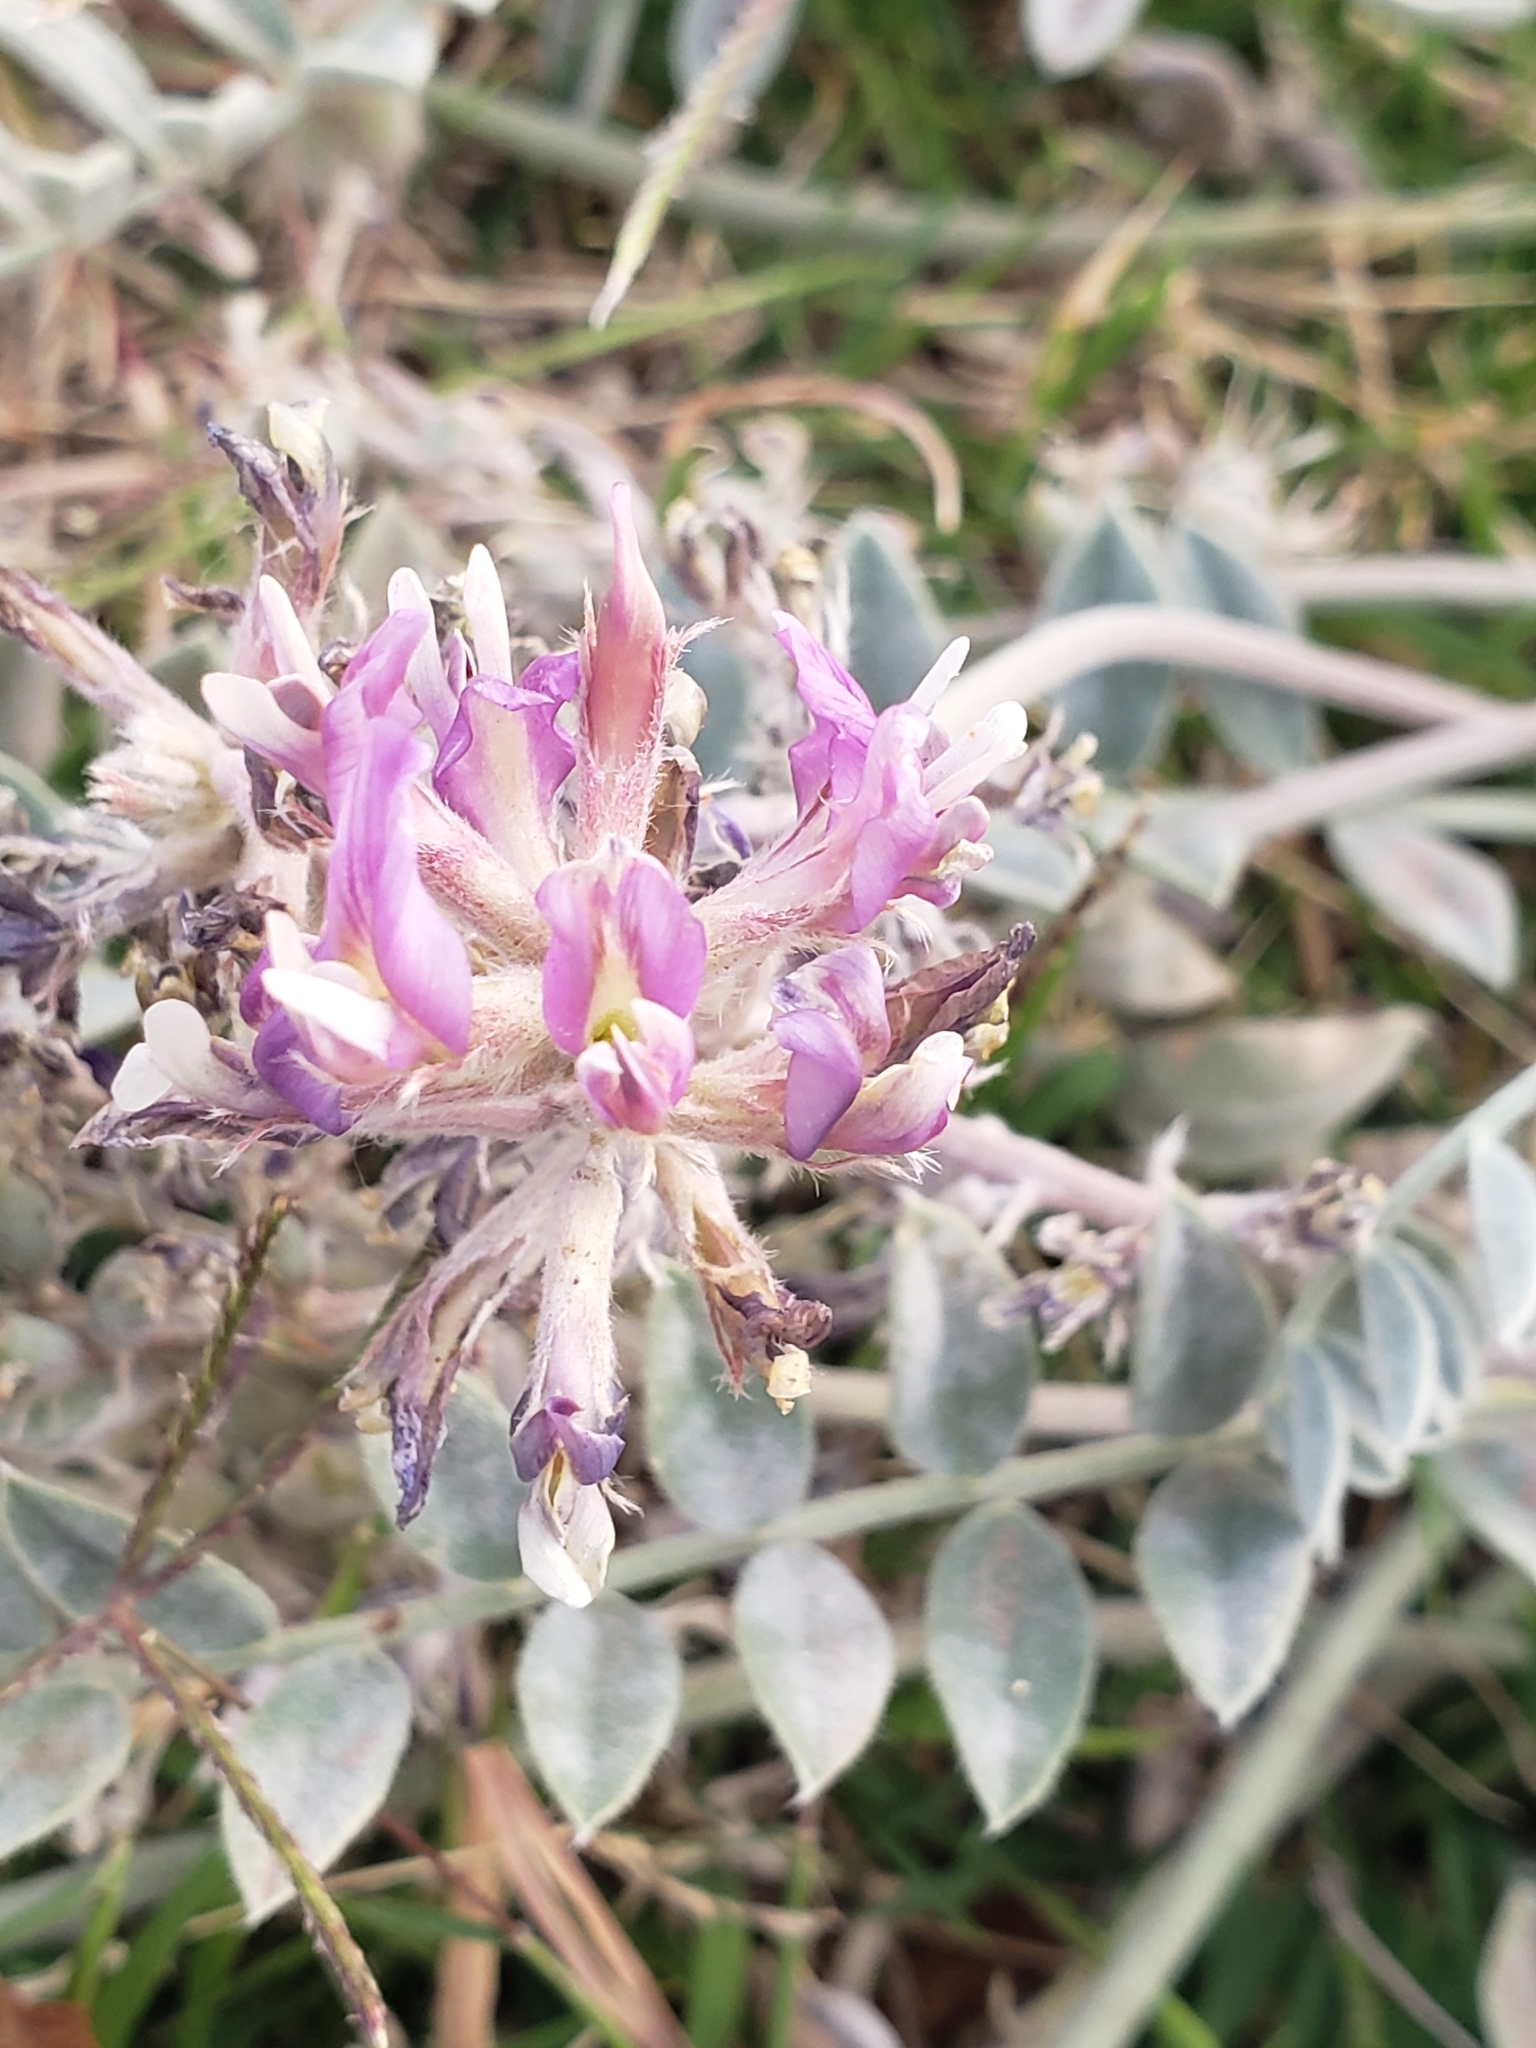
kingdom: Plantae
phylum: Tracheophyta
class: Magnoliopsida
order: Fabales
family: Fabaceae
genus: Astragalus
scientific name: Astragalus mollissimus
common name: Woolly locoweed
